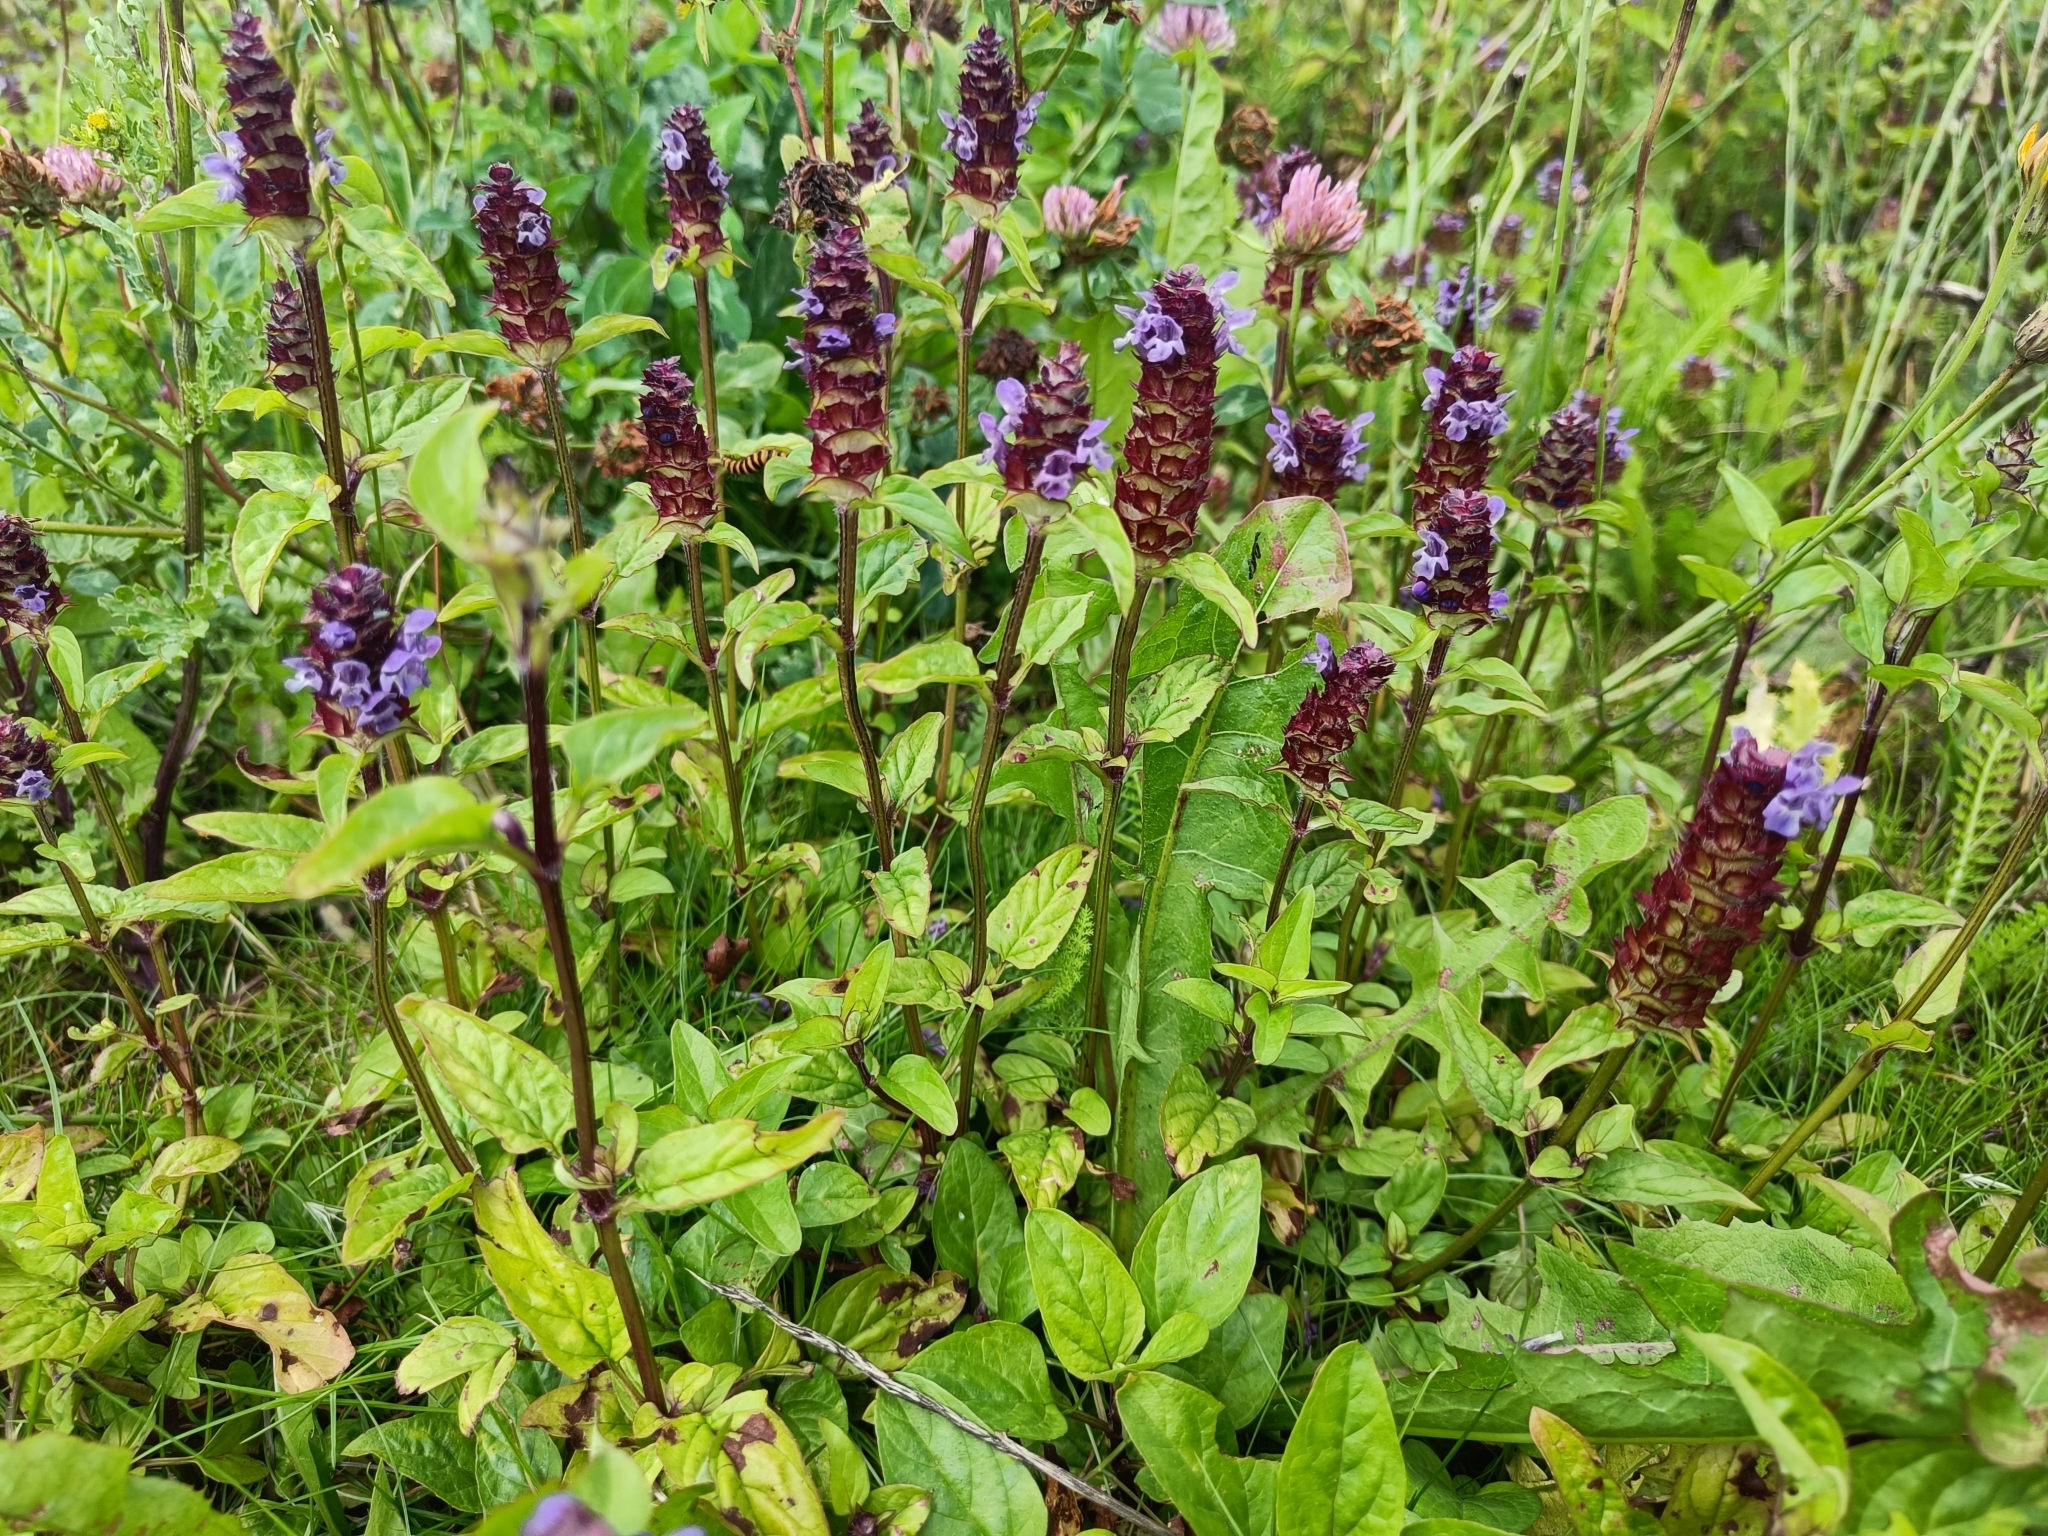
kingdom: Plantae
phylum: Tracheophyta
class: Magnoliopsida
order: Lamiales
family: Lamiaceae
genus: Prunella
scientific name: Prunella vulgaris
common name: Heal-all
